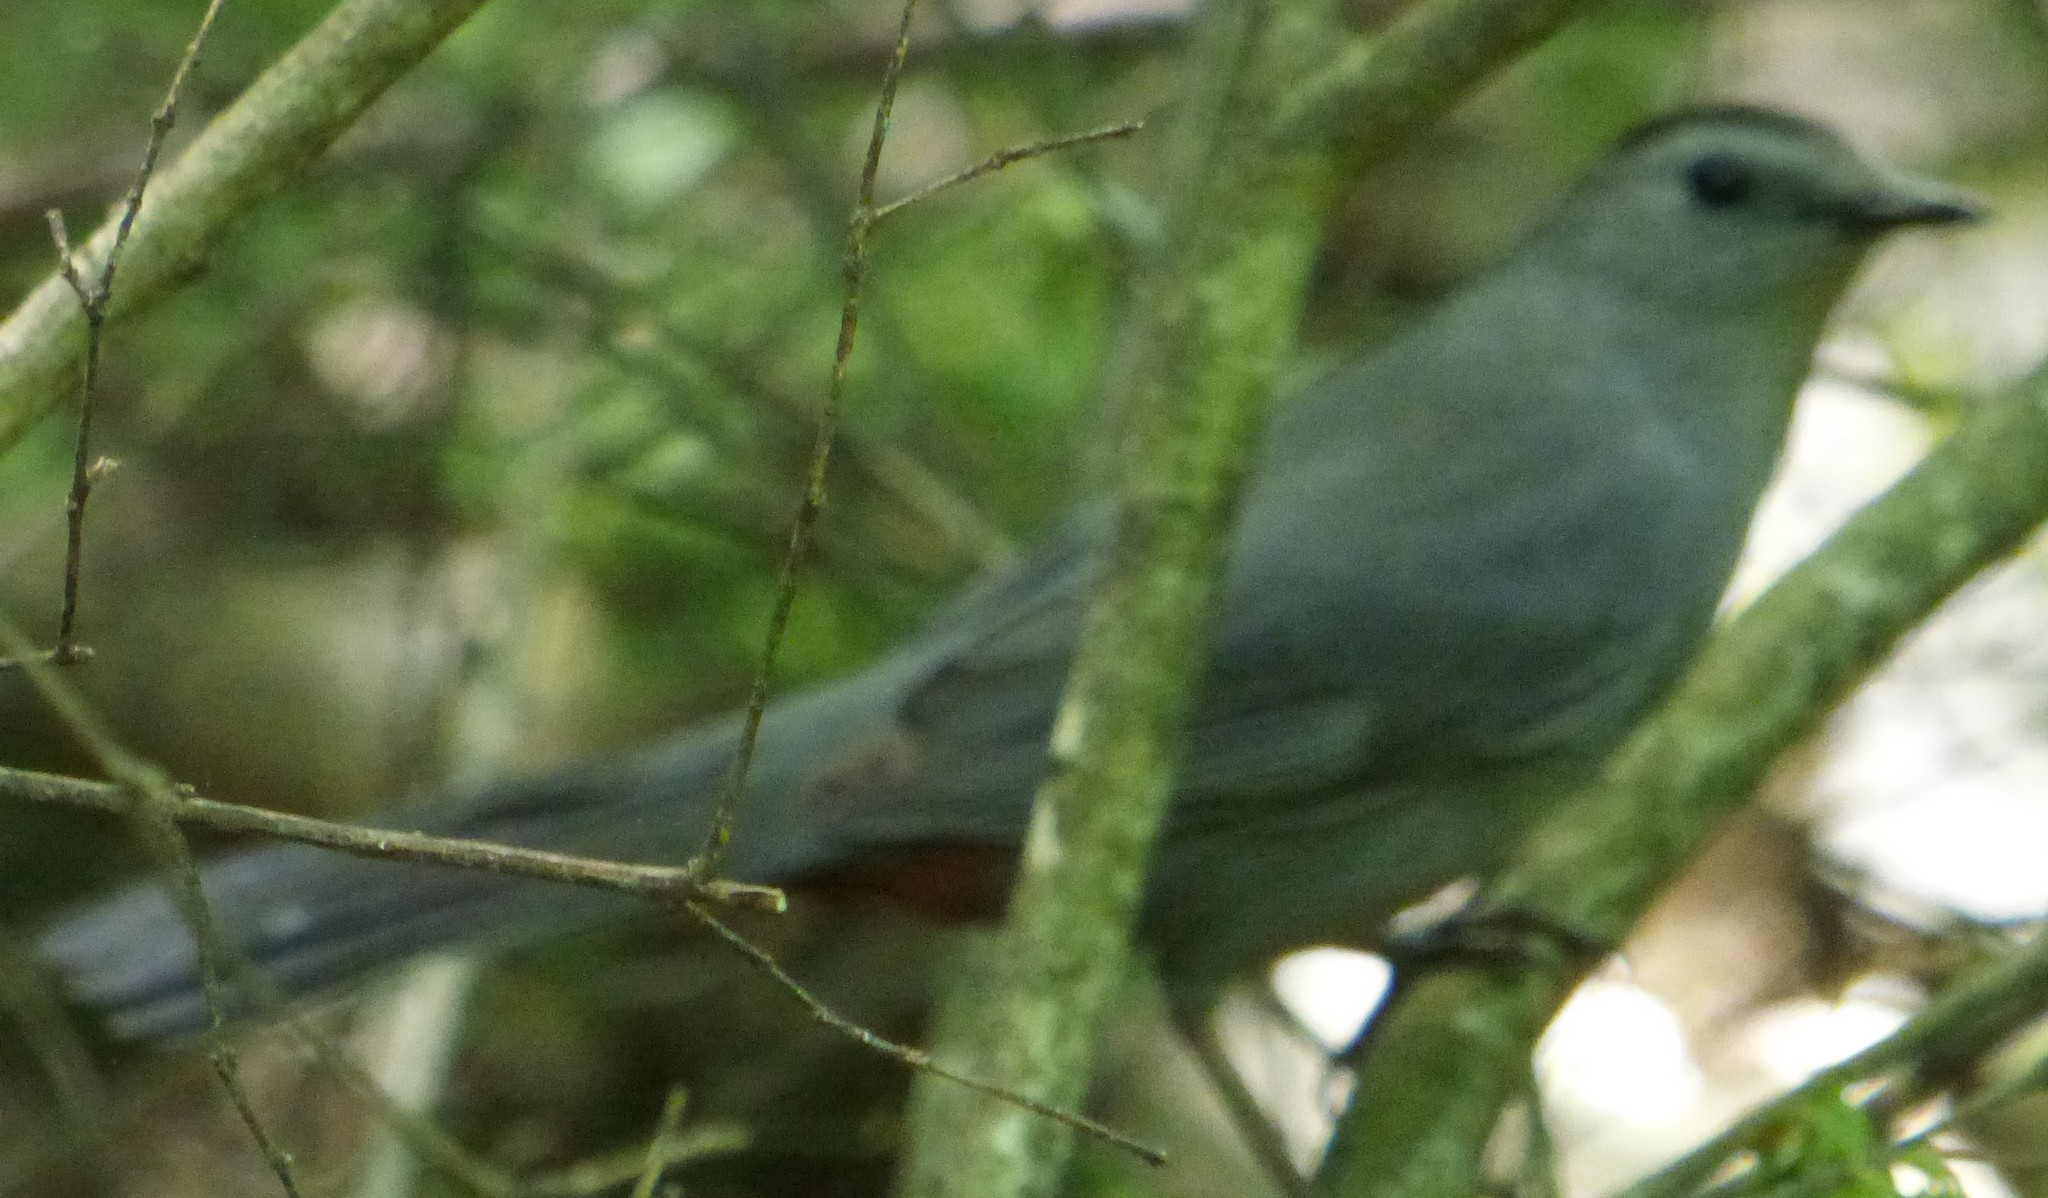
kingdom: Animalia
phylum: Chordata
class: Aves
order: Passeriformes
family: Mimidae
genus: Dumetella
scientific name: Dumetella carolinensis
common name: Gray catbird
